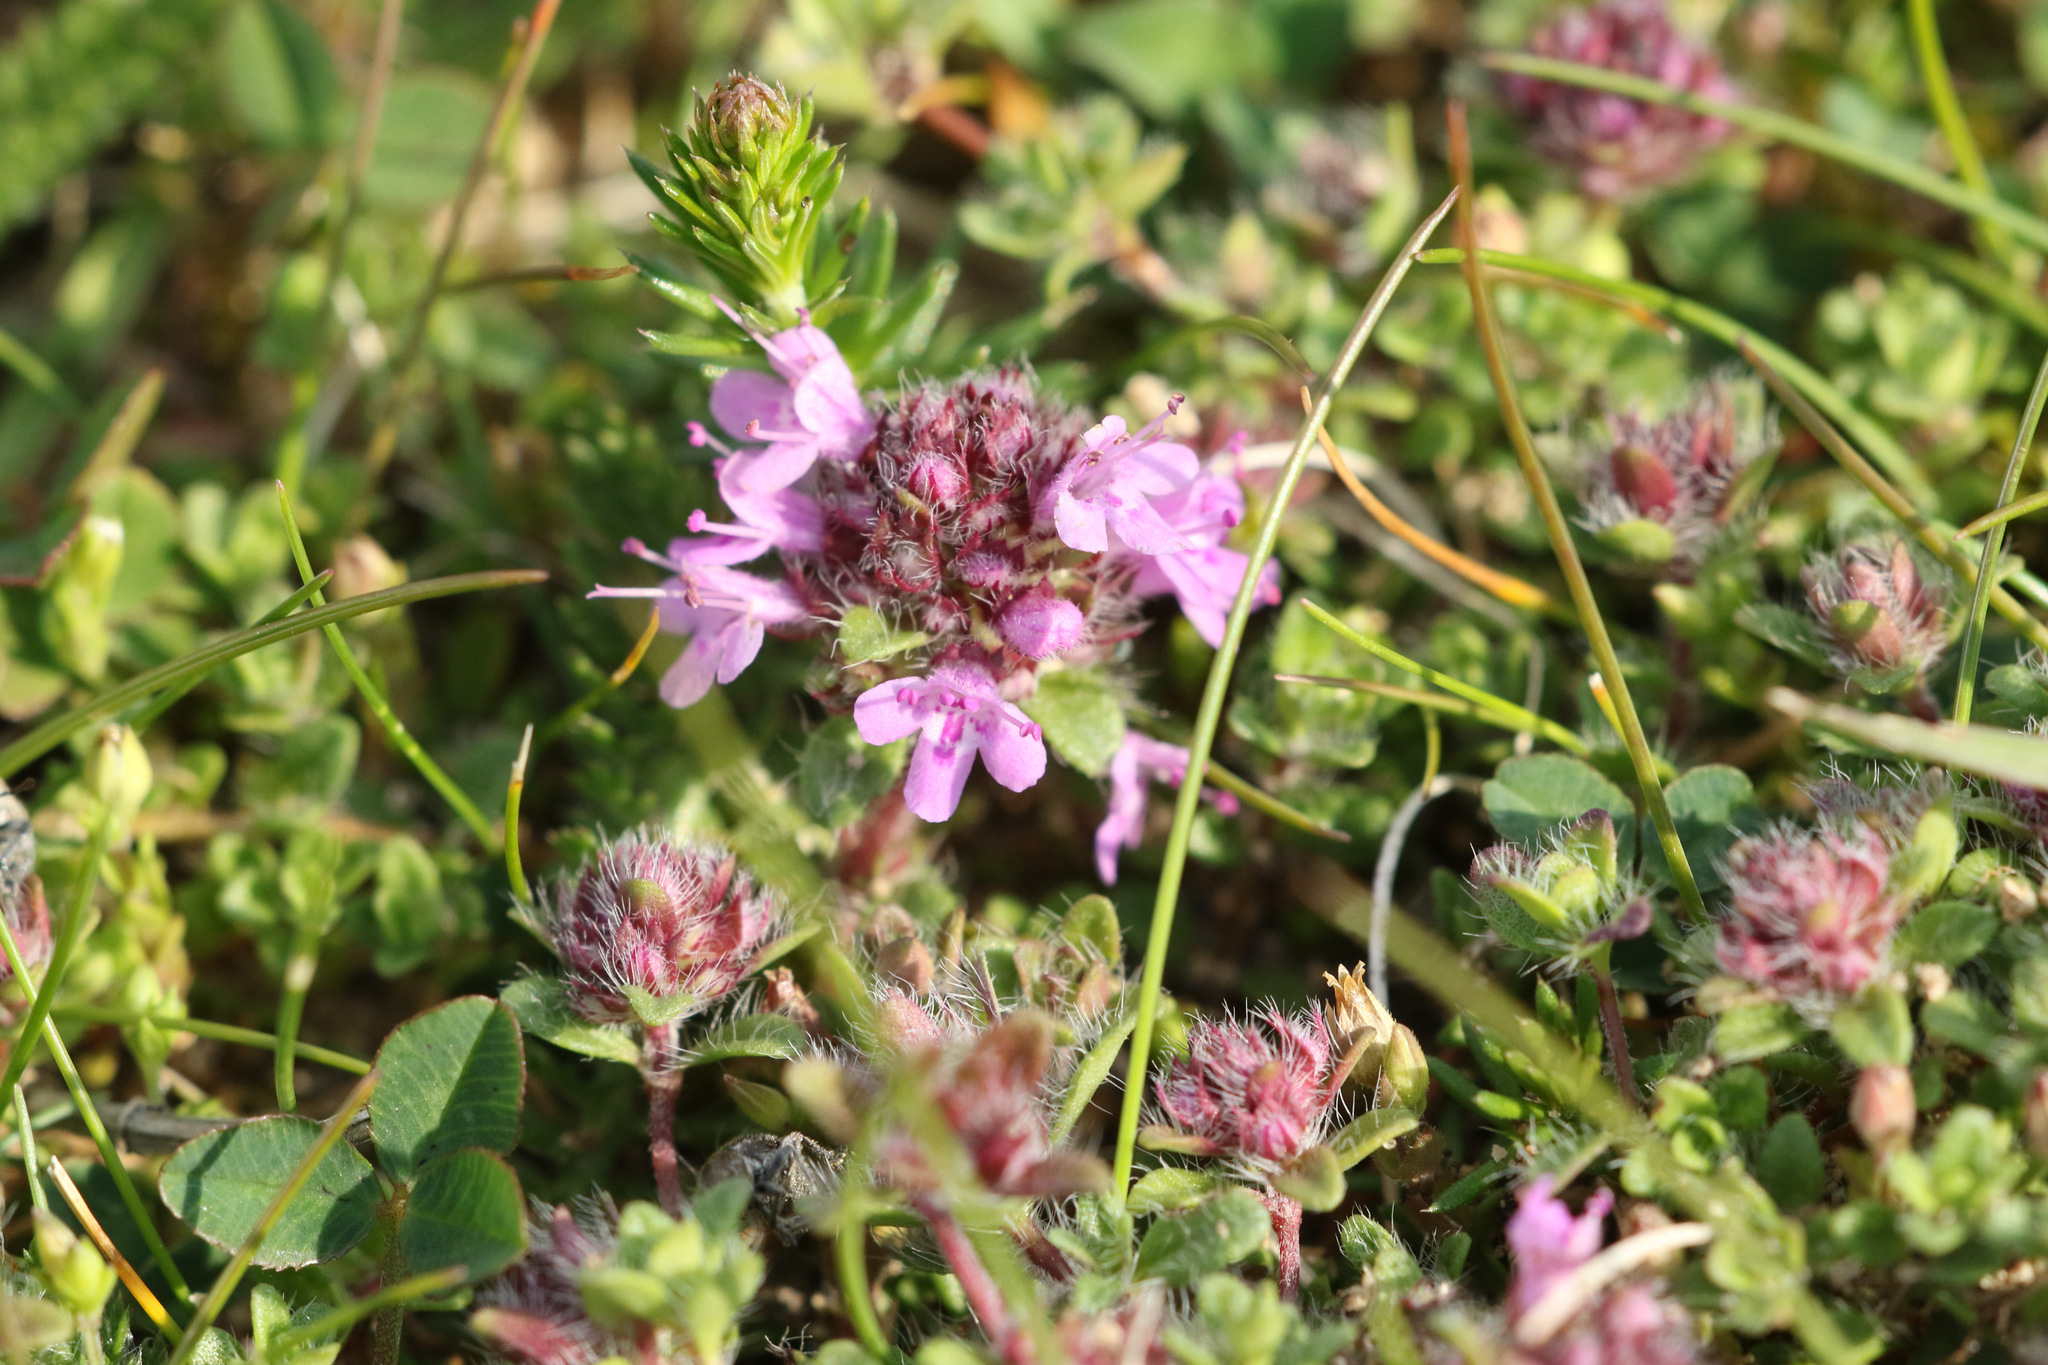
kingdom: Plantae
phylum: Tracheophyta
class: Magnoliopsida
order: Lamiales
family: Lamiaceae
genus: Thymus
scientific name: Thymus praecox
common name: Wild thyme
